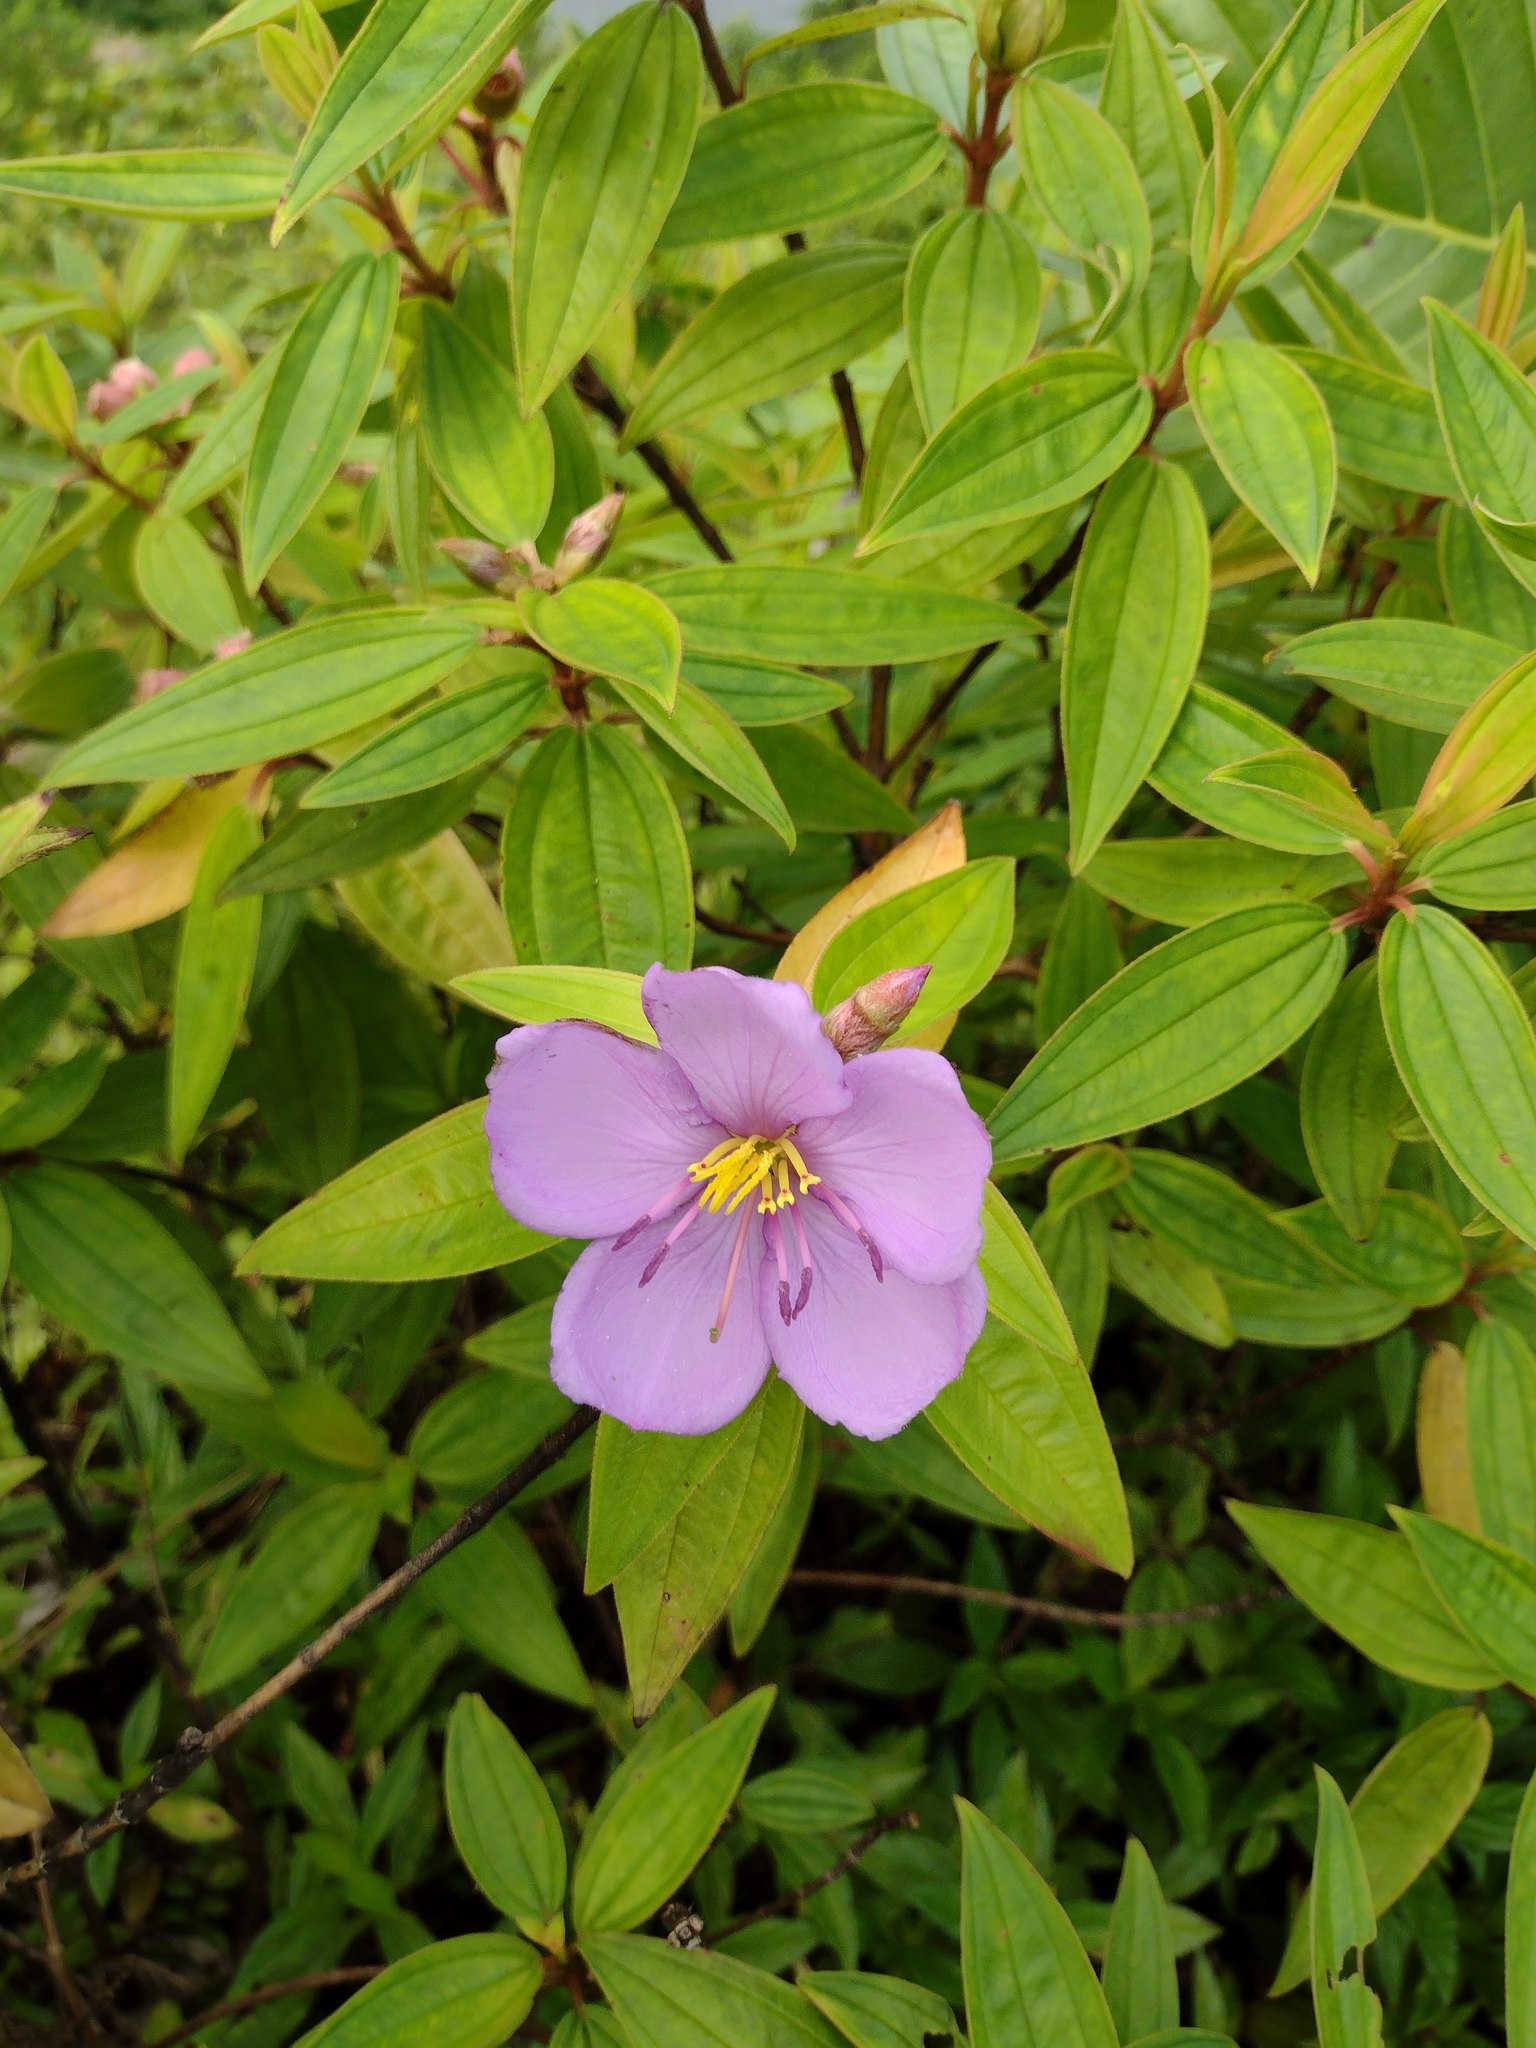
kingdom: Plantae
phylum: Tracheophyta
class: Magnoliopsida
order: Myrtales
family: Melastomataceae
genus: Melastoma
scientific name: Melastoma malabathricum
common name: Indian-rhododendron
